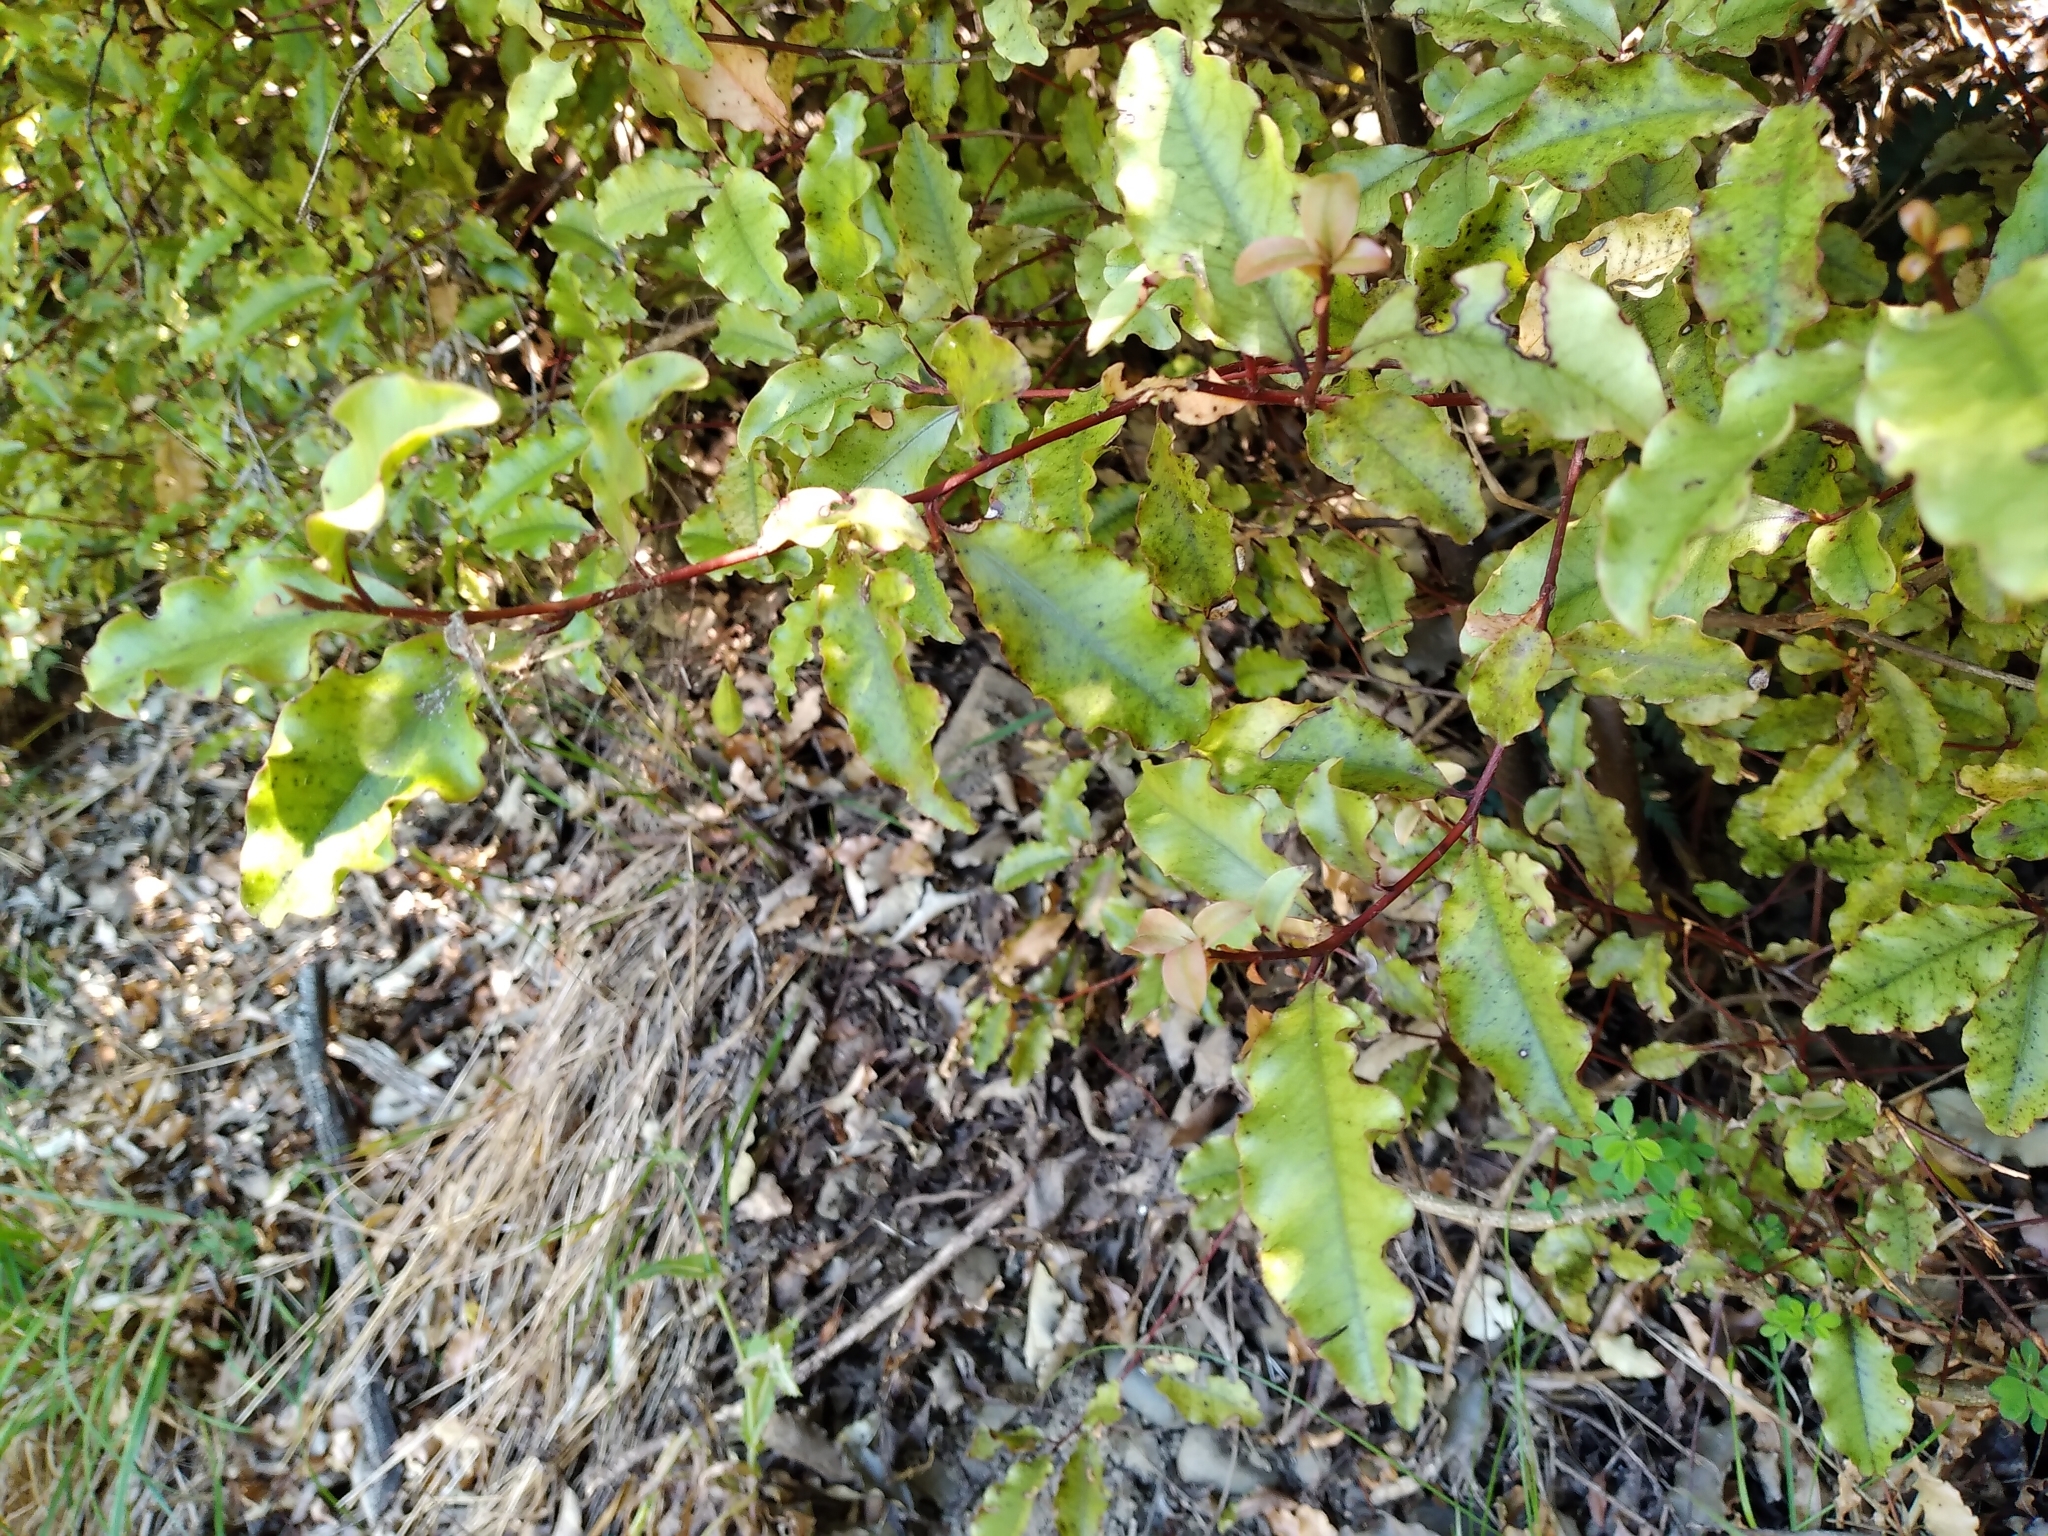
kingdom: Plantae
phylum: Tracheophyta
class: Magnoliopsida
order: Ericales
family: Primulaceae
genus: Myrsine
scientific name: Myrsine australis
